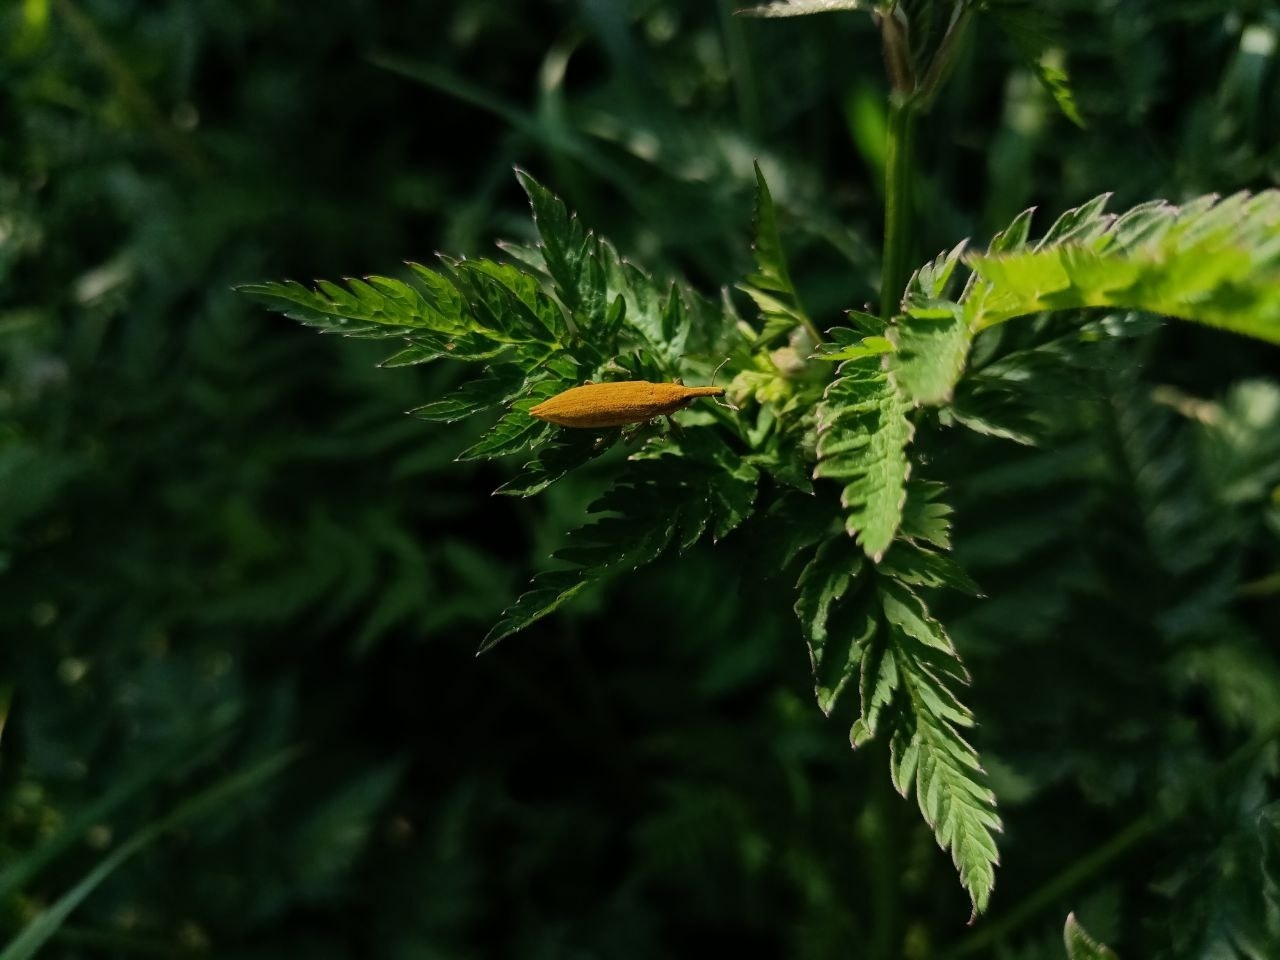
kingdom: Animalia
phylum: Arthropoda
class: Insecta
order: Coleoptera
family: Curculionidae
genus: Lixus
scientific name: Lixus iridis
